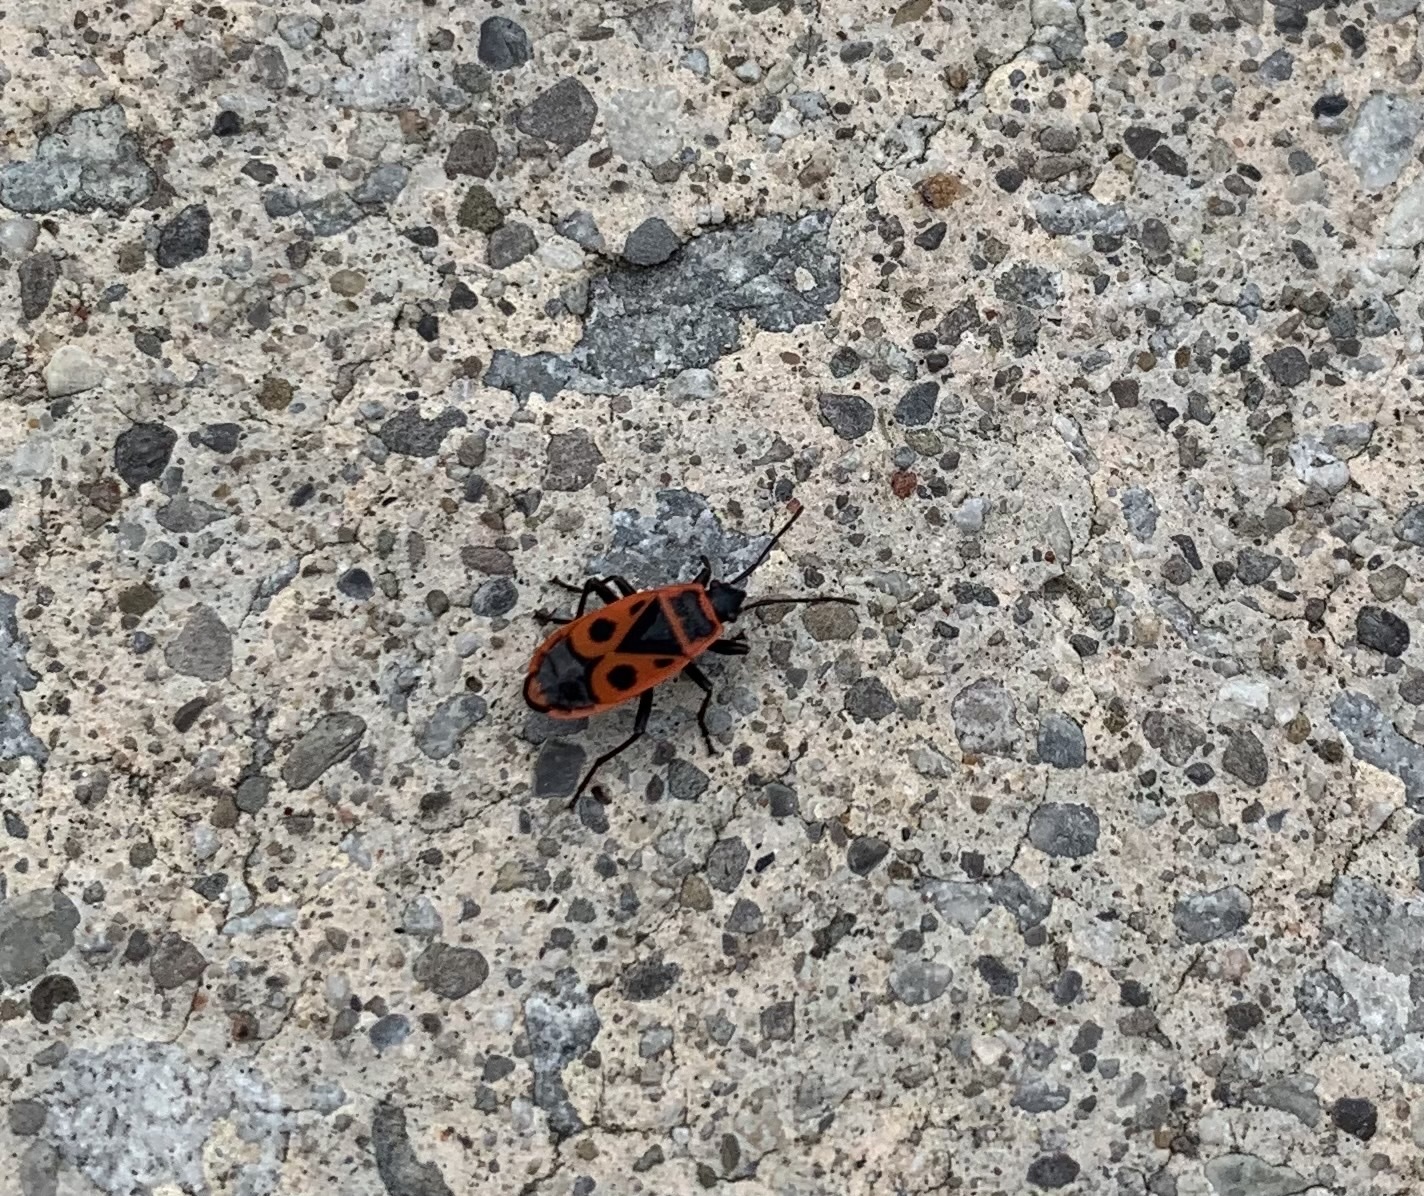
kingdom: Animalia
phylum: Arthropoda
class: Insecta
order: Hemiptera
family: Pyrrhocoridae
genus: Pyrrhocoris
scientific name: Pyrrhocoris apterus
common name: Firebug
